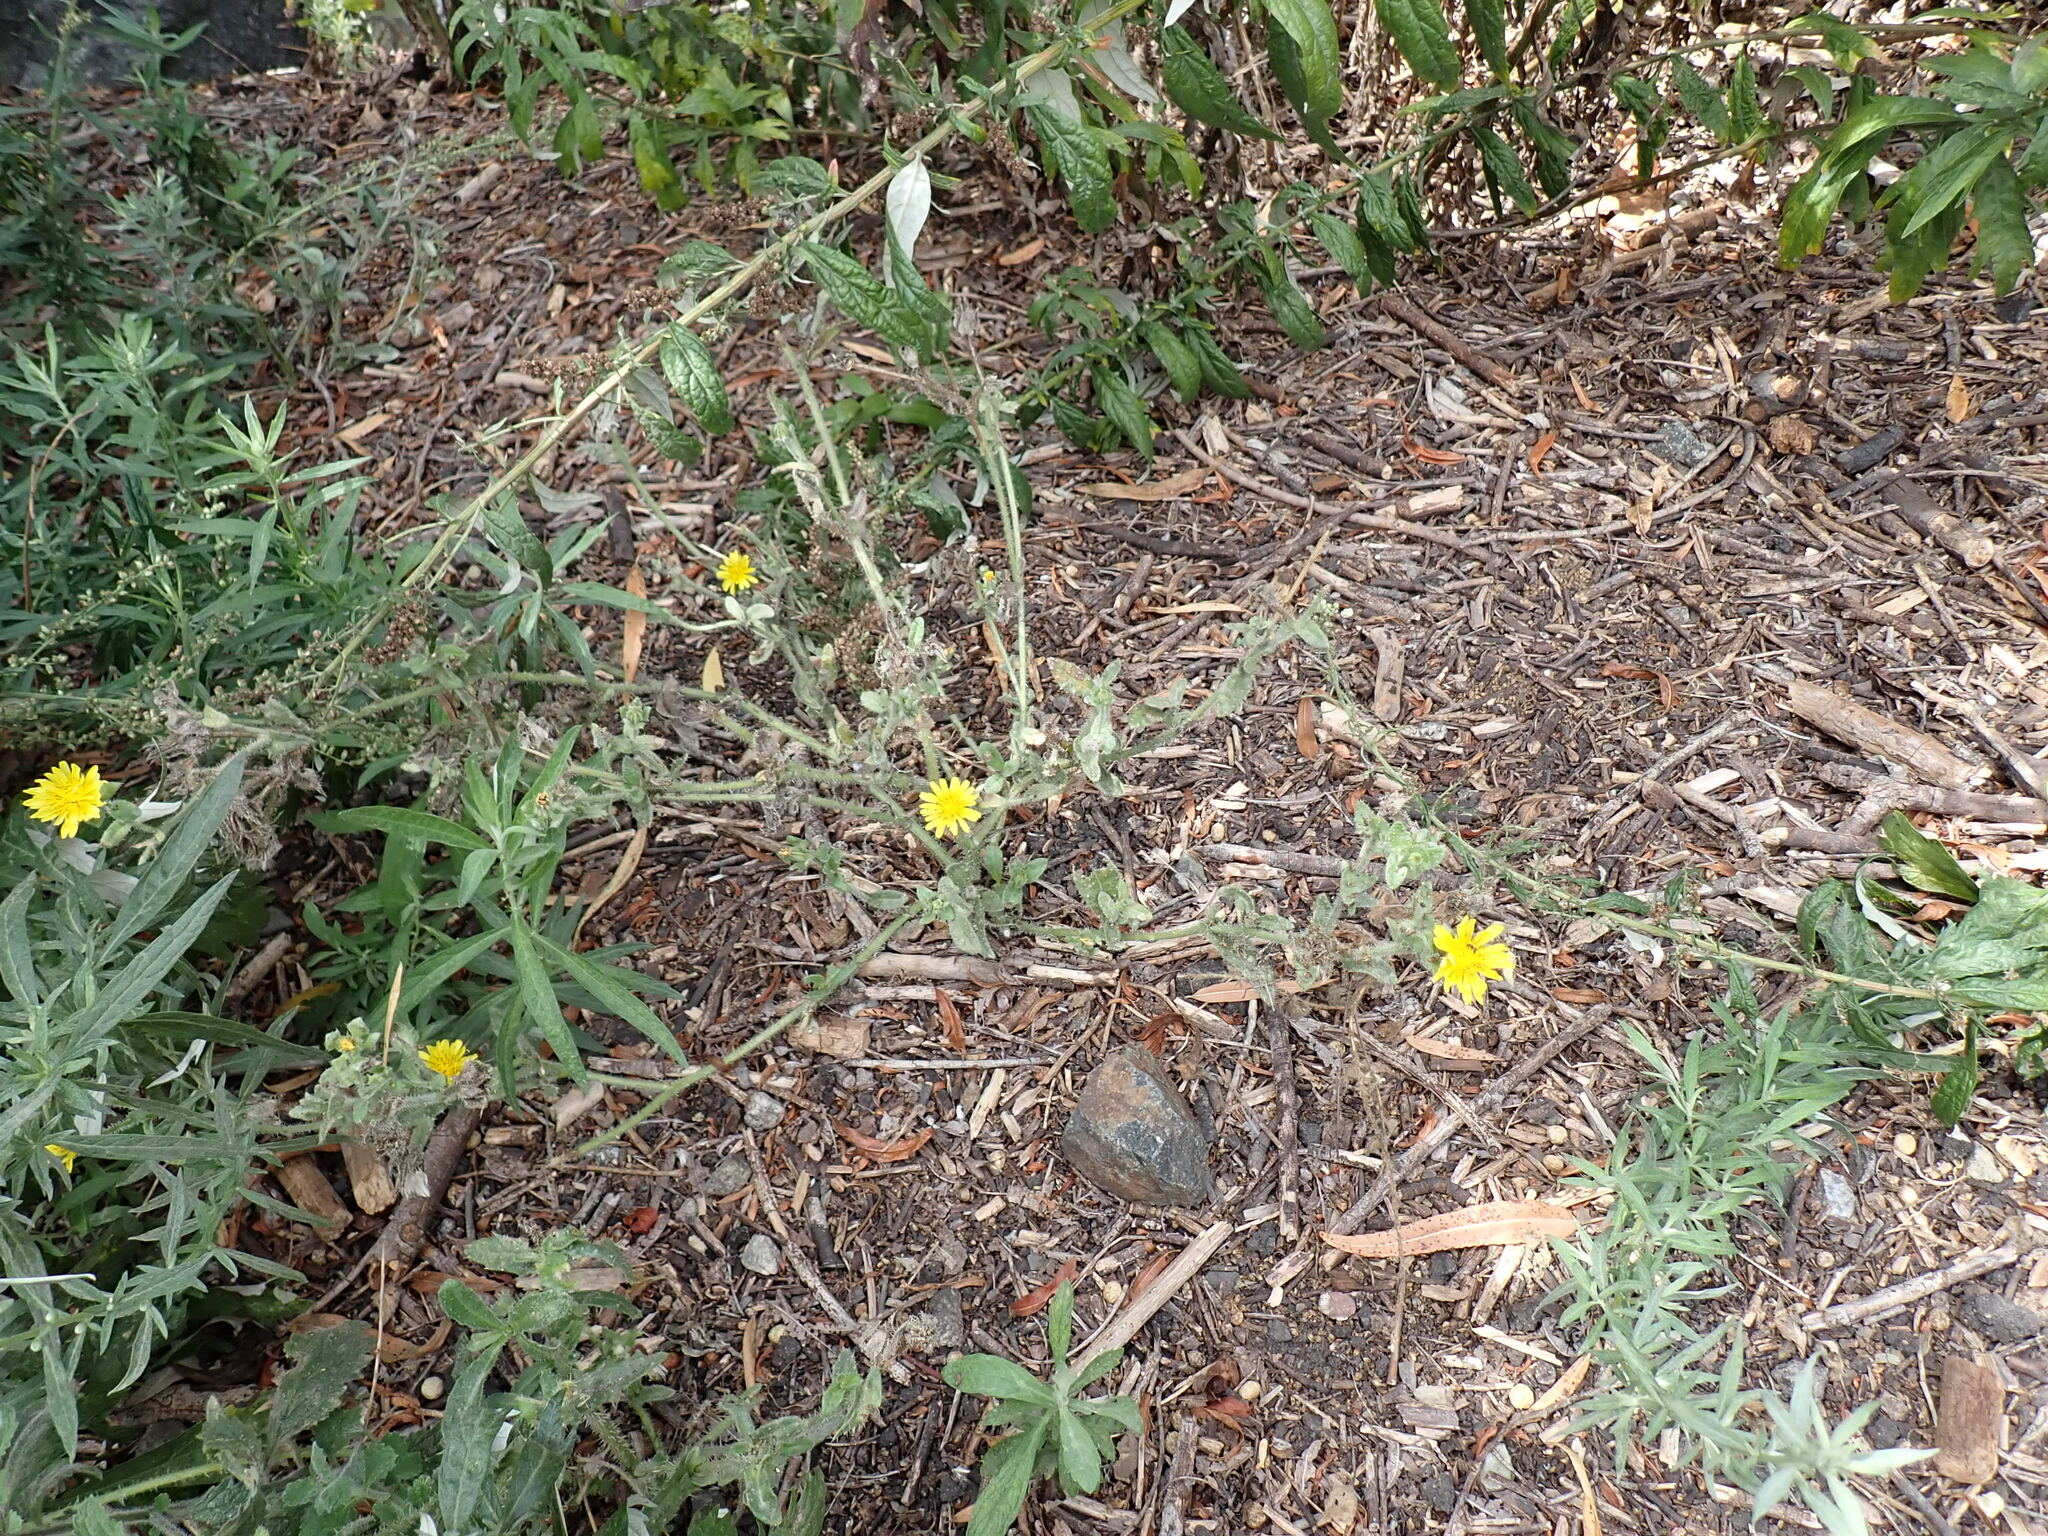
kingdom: Plantae
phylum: Tracheophyta
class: Magnoliopsida
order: Asterales
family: Asteraceae
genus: Helminthotheca
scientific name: Helminthotheca echioides
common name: Ox-tongue
